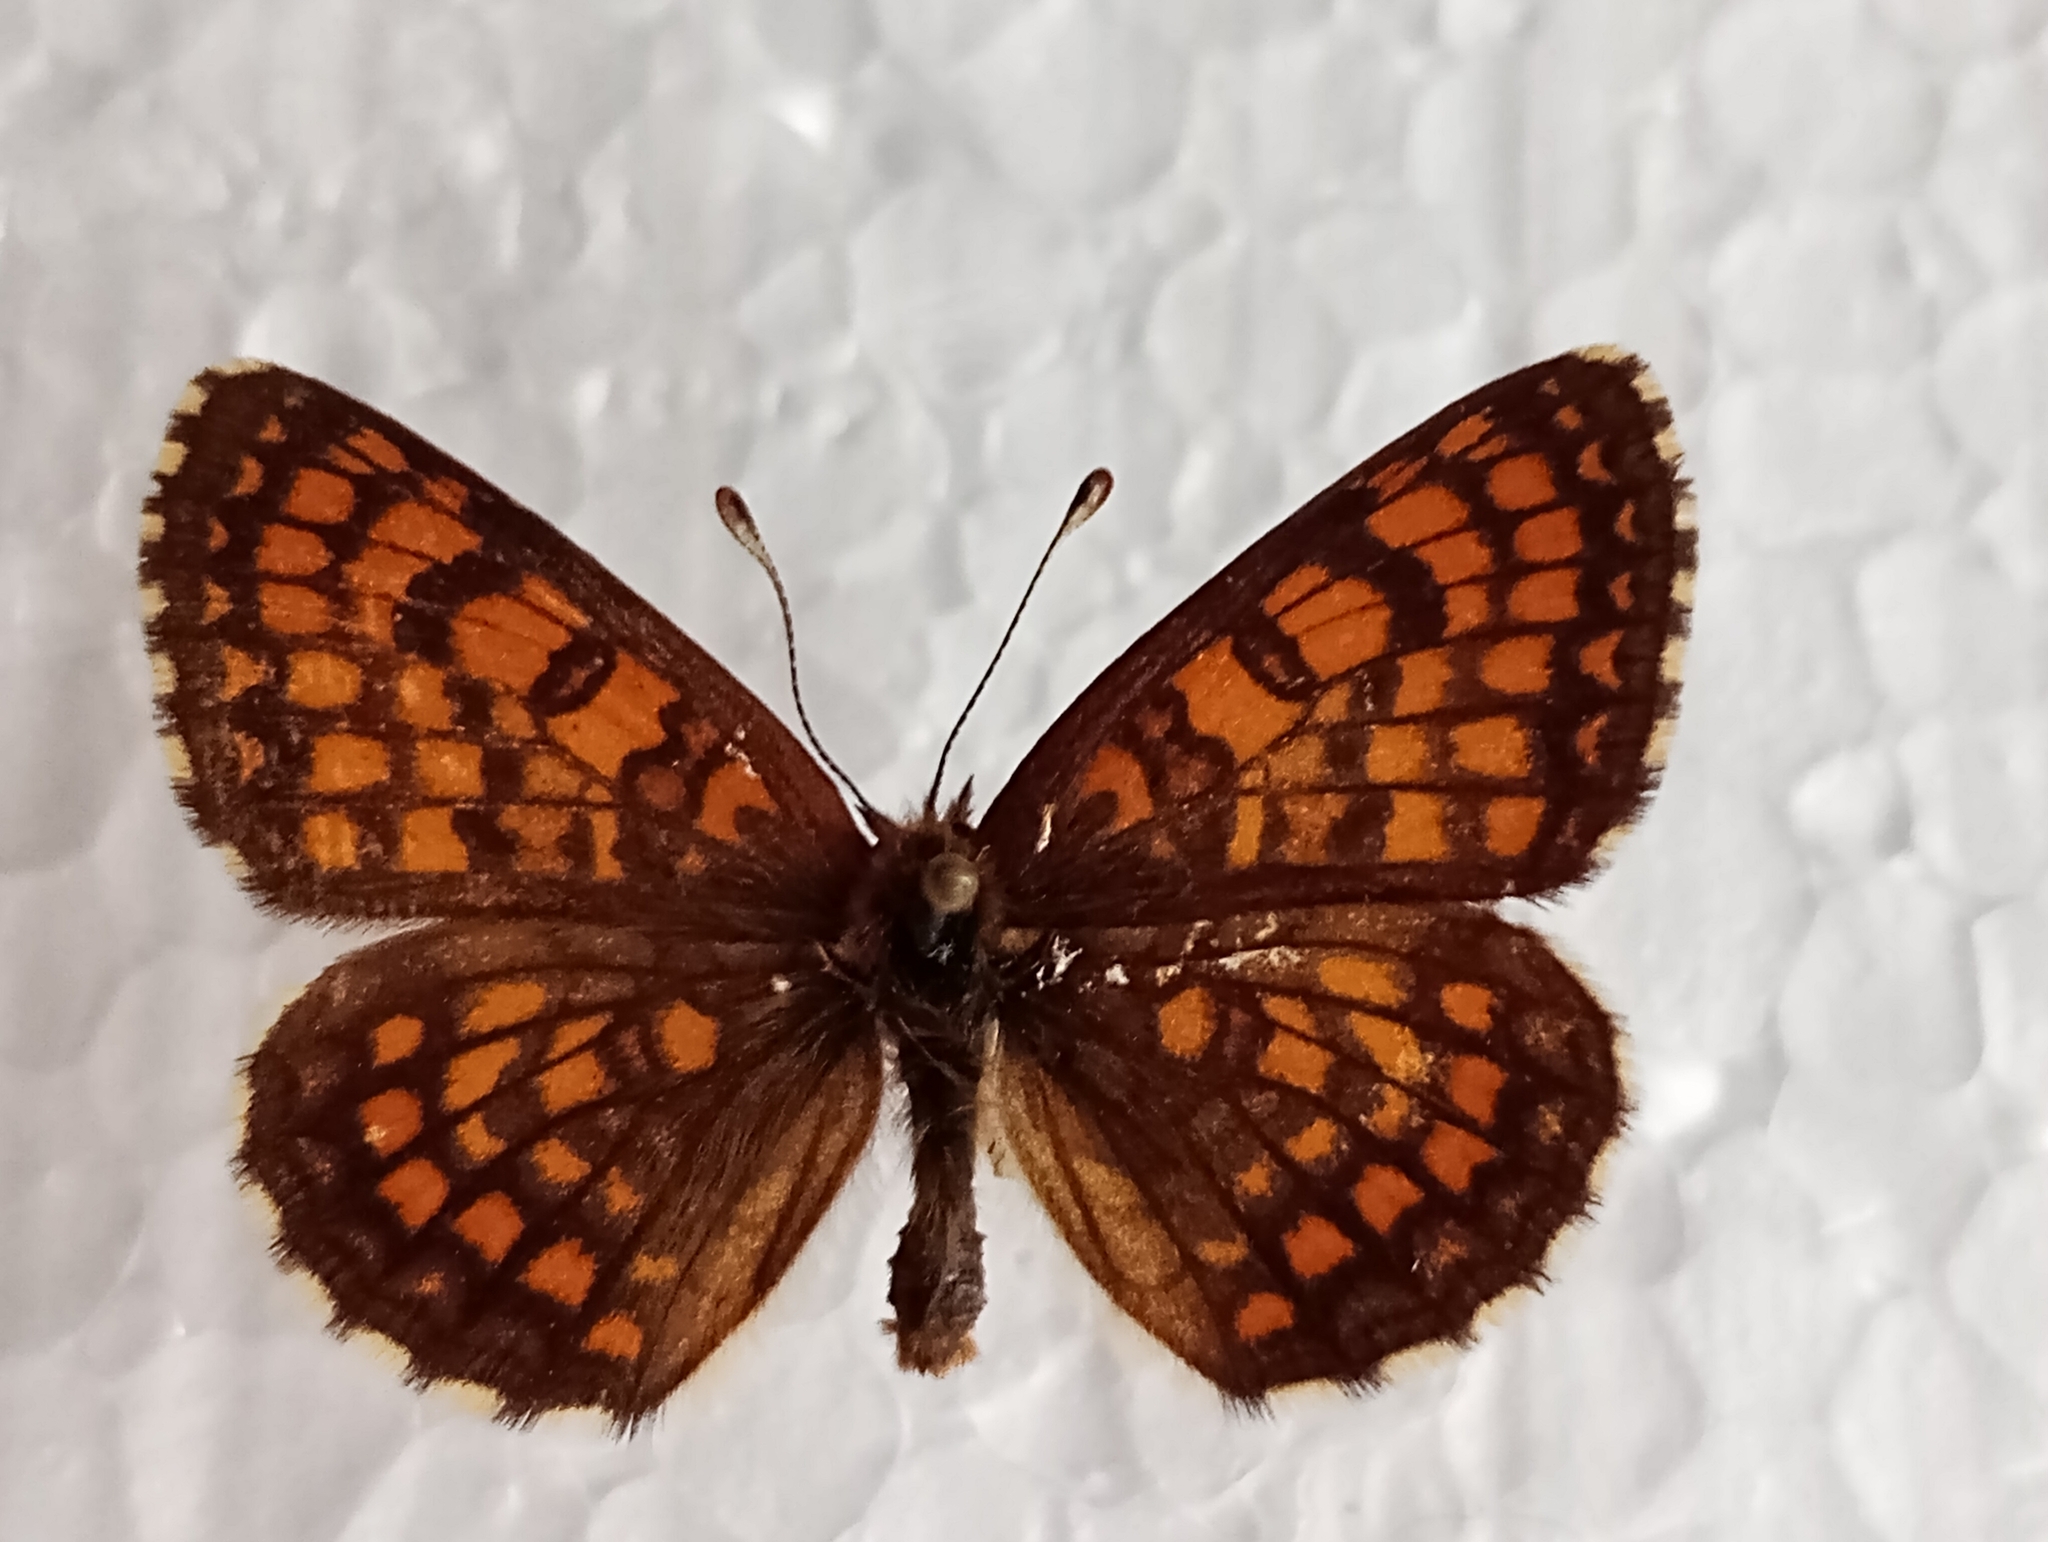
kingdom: Animalia
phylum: Arthropoda
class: Insecta
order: Lepidoptera
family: Nymphalidae
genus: Melitaea
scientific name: Melitaea athalia
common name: Heath fritillary
